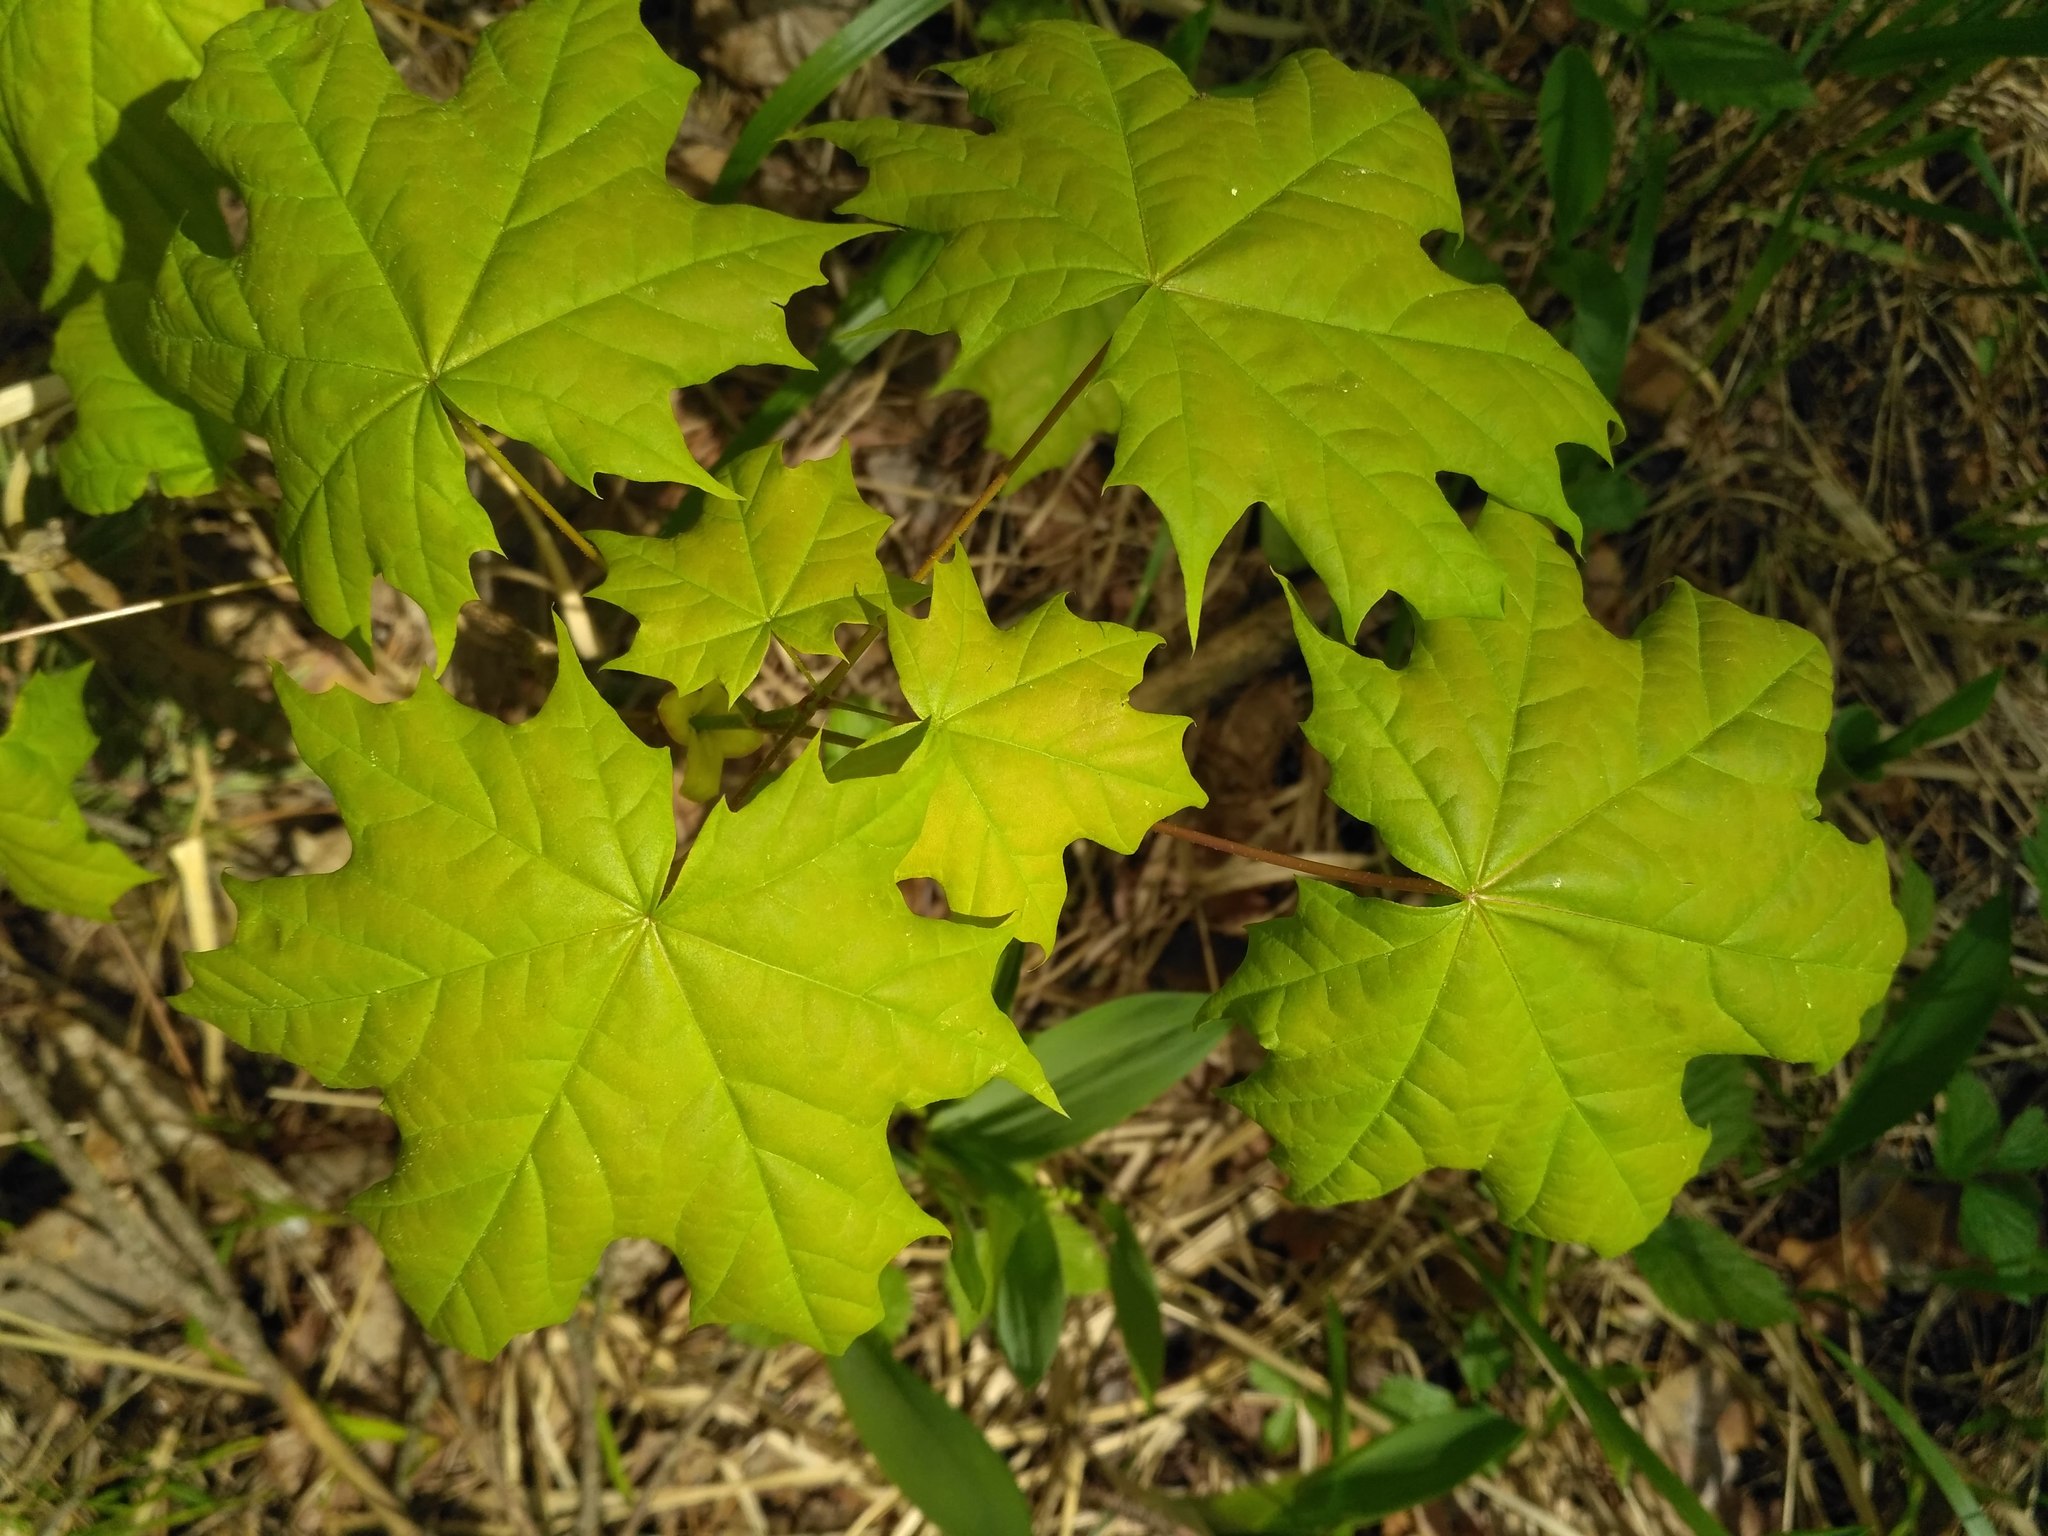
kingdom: Plantae
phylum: Tracheophyta
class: Magnoliopsida
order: Sapindales
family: Sapindaceae
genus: Acer
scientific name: Acer platanoides
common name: Norway maple
